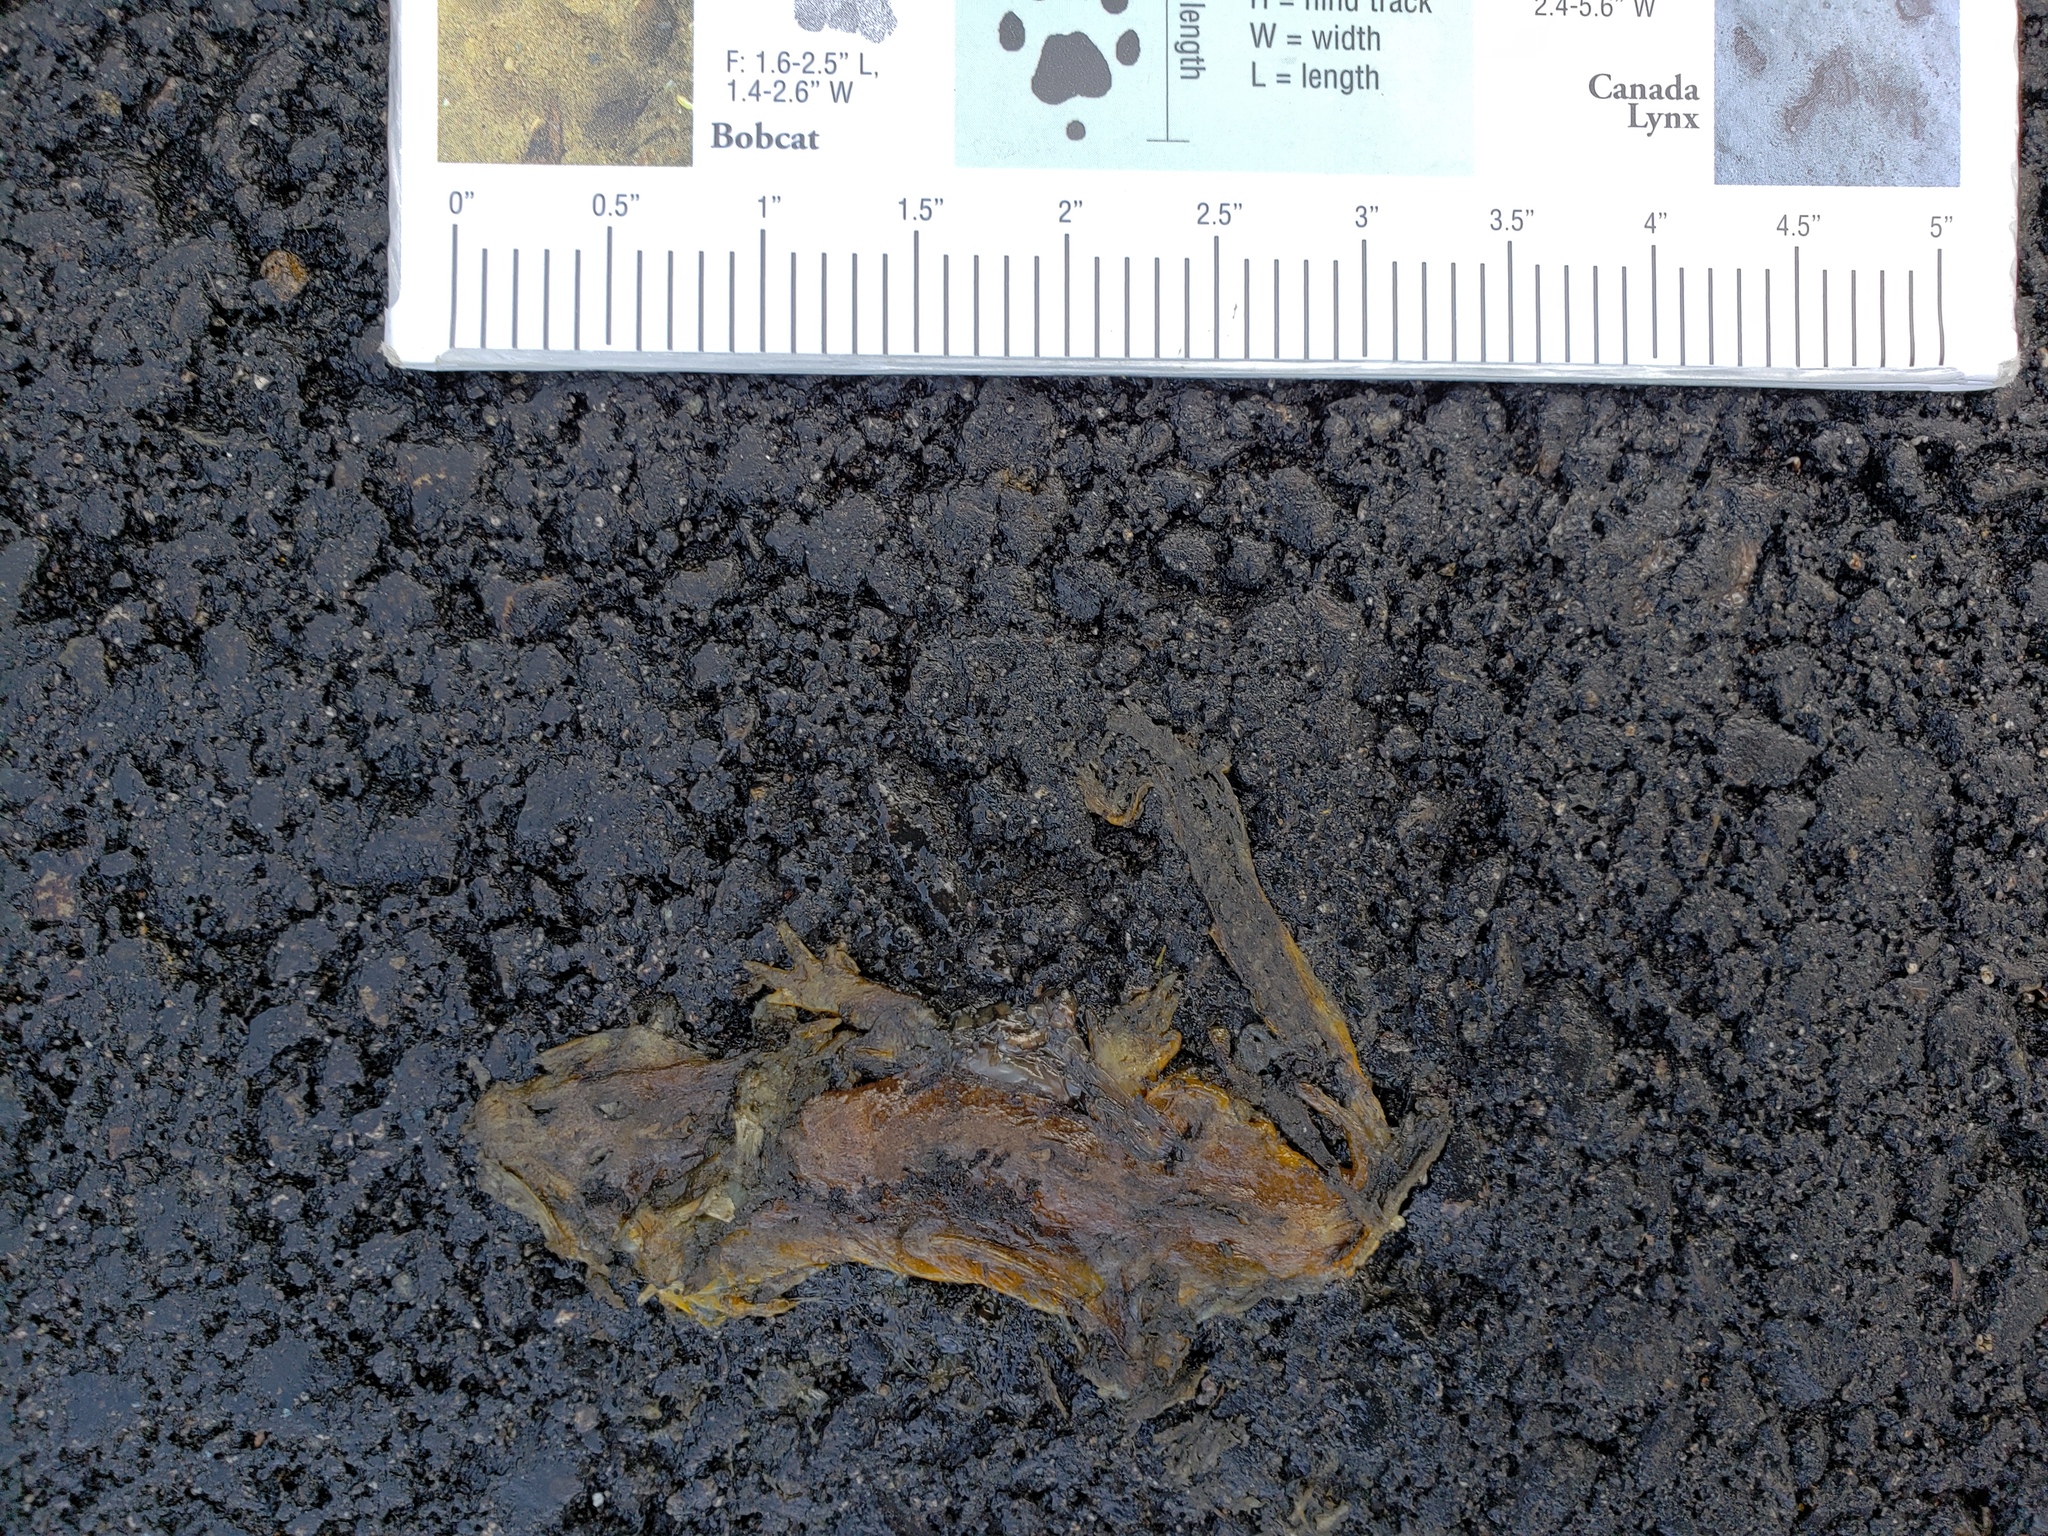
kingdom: Animalia
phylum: Chordata
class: Amphibia
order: Caudata
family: Salamandridae
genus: Taricha
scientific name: Taricha
